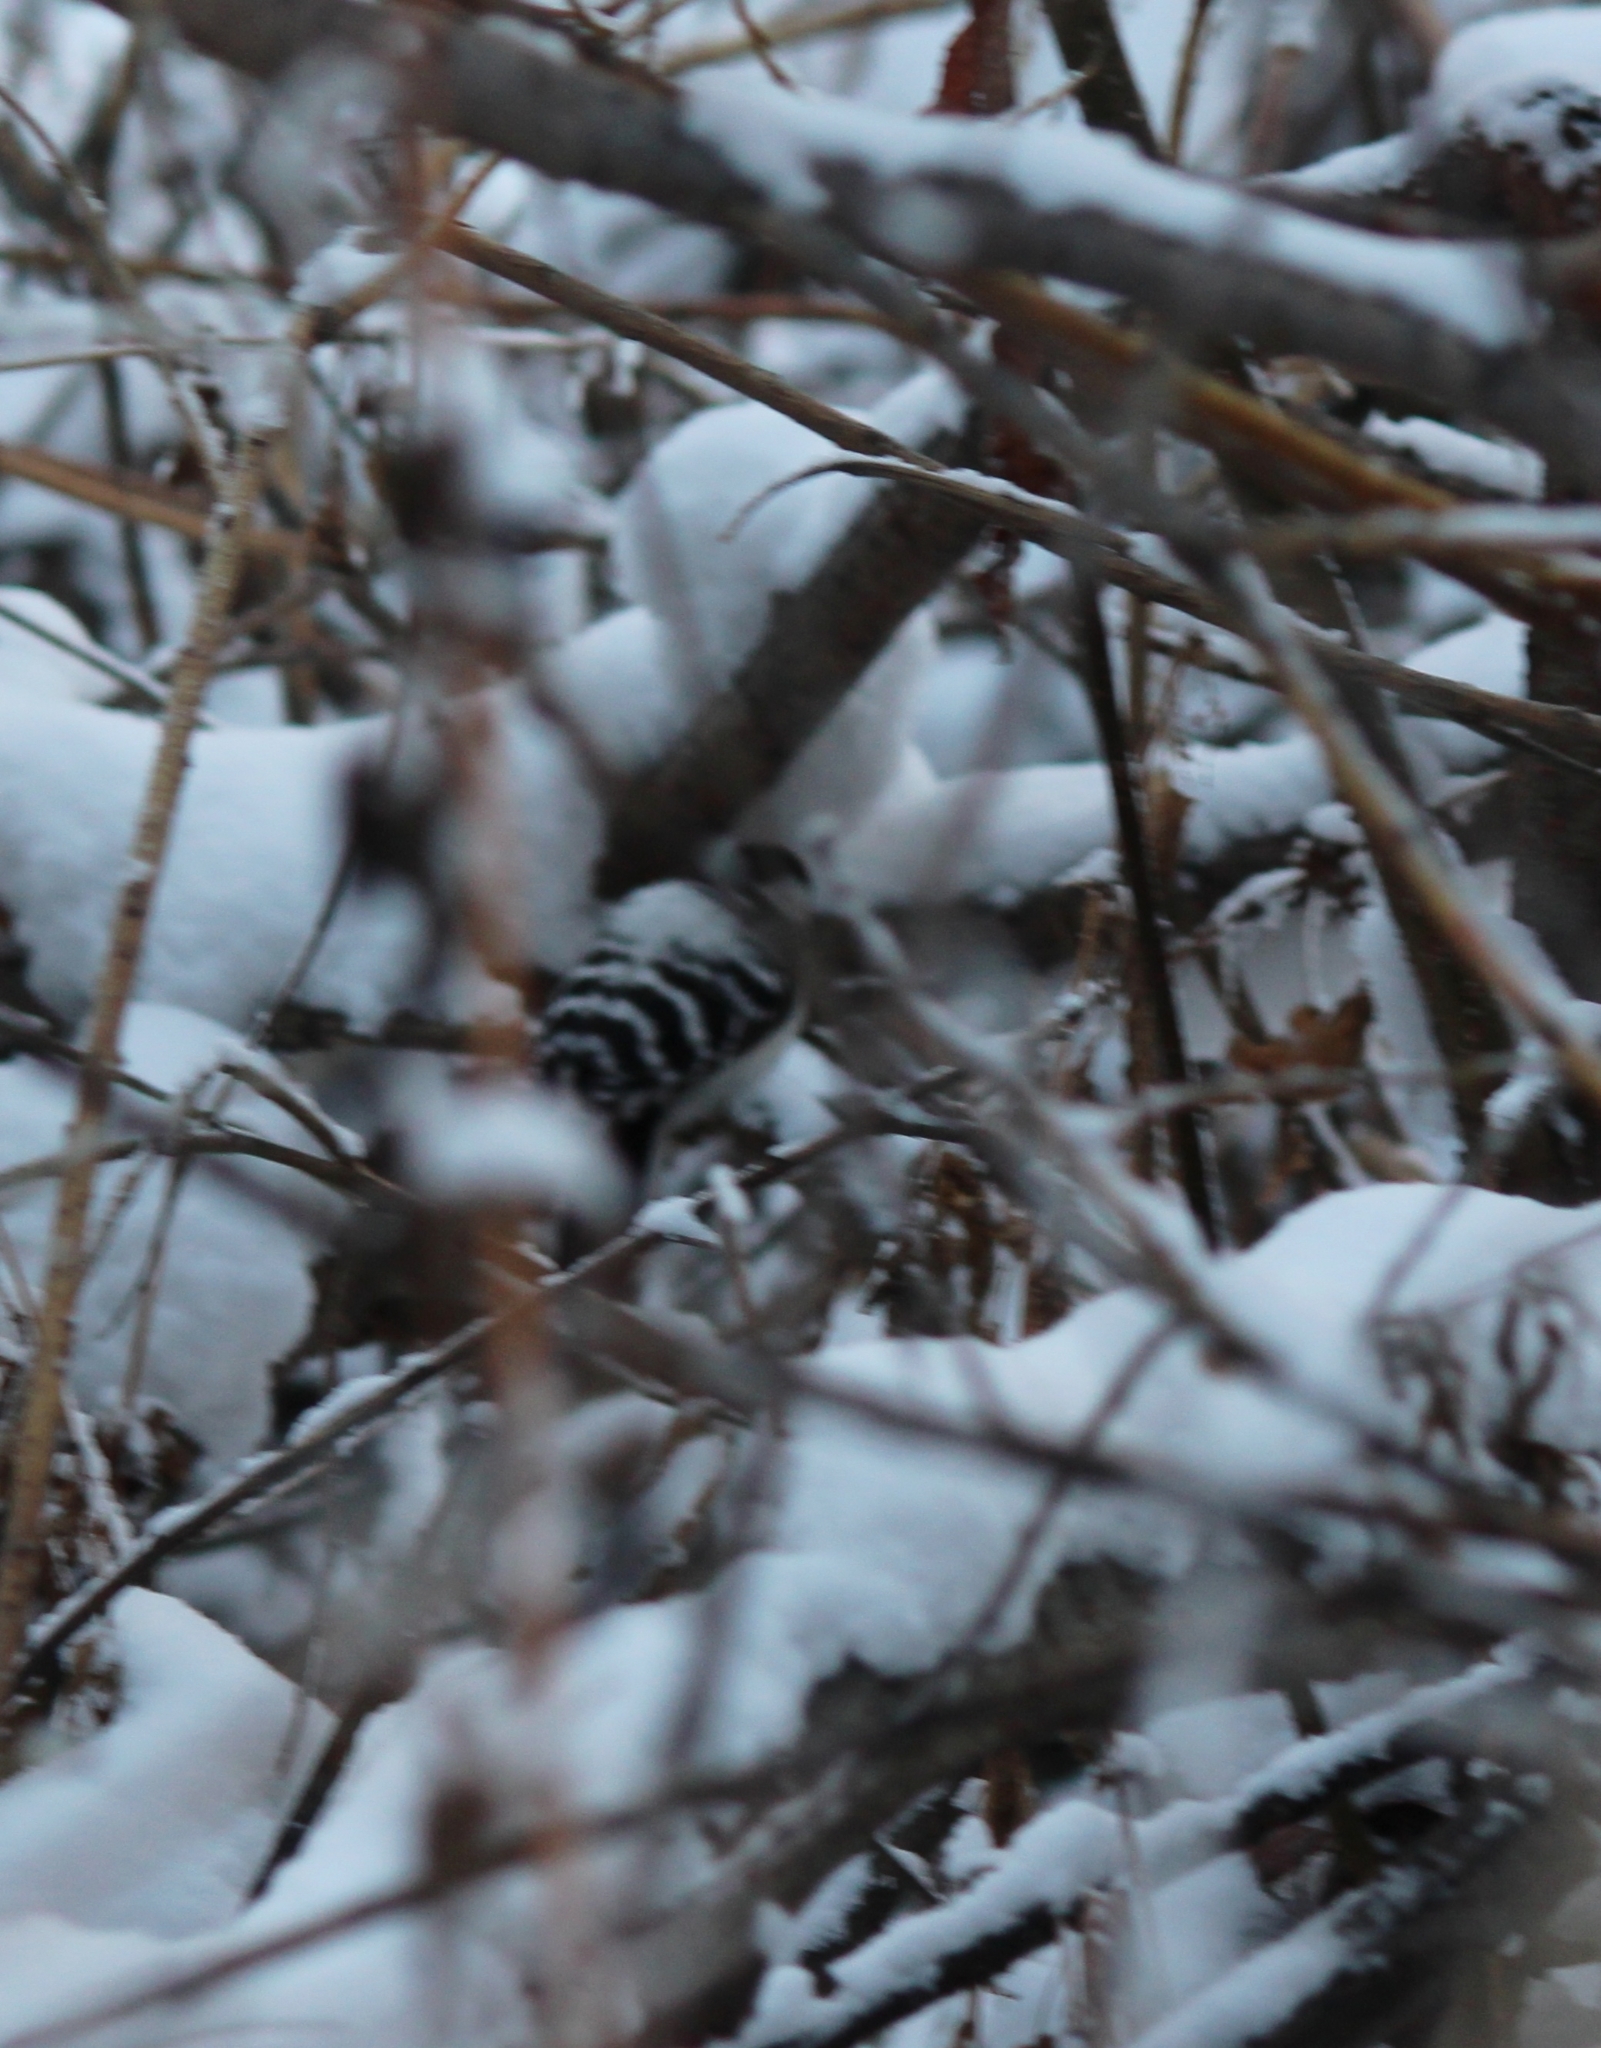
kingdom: Animalia
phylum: Chordata
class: Aves
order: Piciformes
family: Picidae
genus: Dryobates
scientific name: Dryobates minor
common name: Lesser spotted woodpecker
